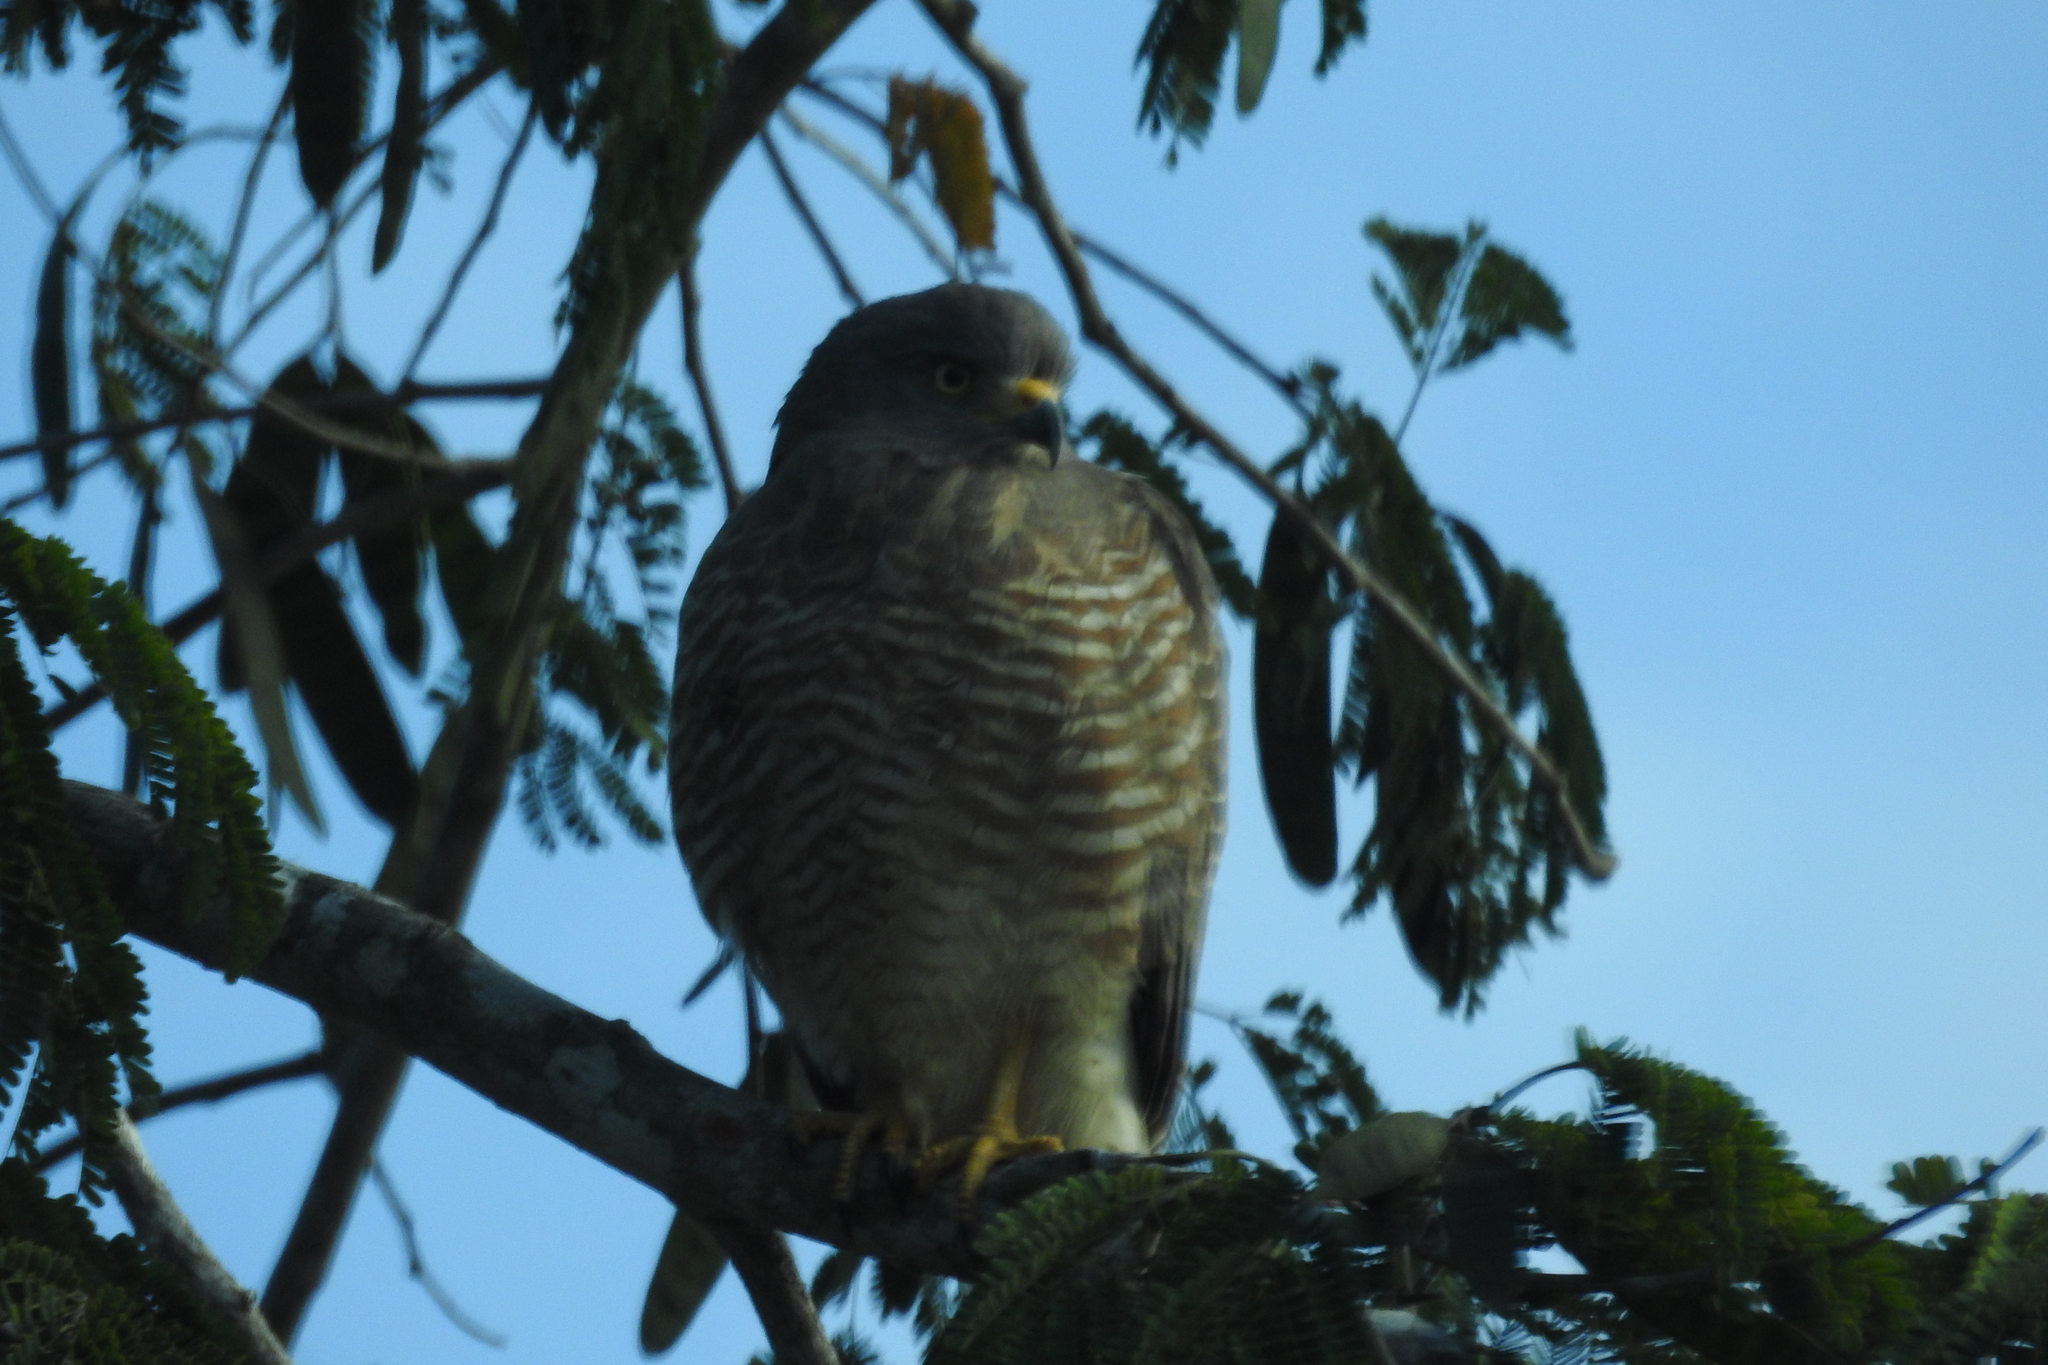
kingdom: Animalia
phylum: Chordata
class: Aves
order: Accipitriformes
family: Accipitridae
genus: Rupornis
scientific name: Rupornis magnirostris
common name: Roadside hawk
